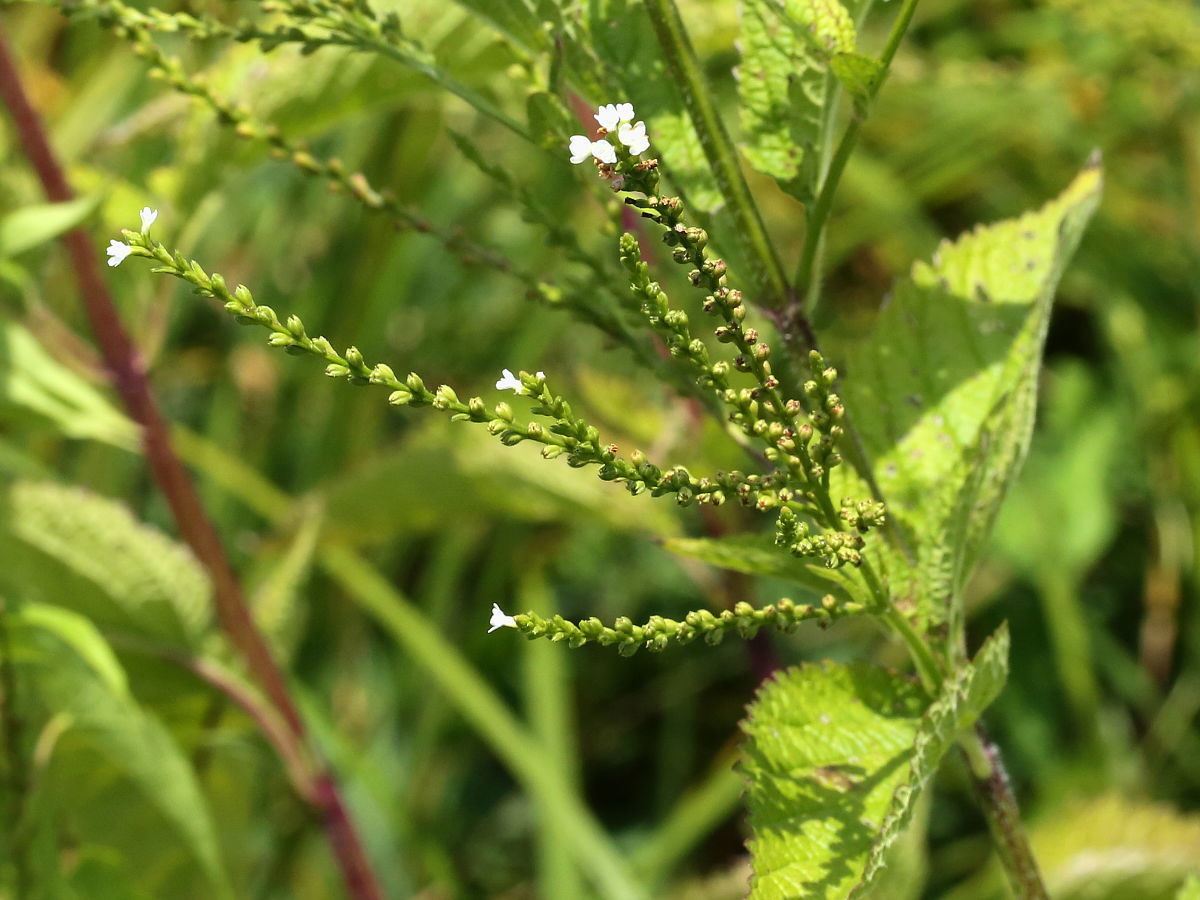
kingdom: Plantae
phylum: Tracheophyta
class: Magnoliopsida
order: Lamiales
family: Verbenaceae
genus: Verbena
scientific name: Verbena urticifolia
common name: Nettle-leaved vervain
